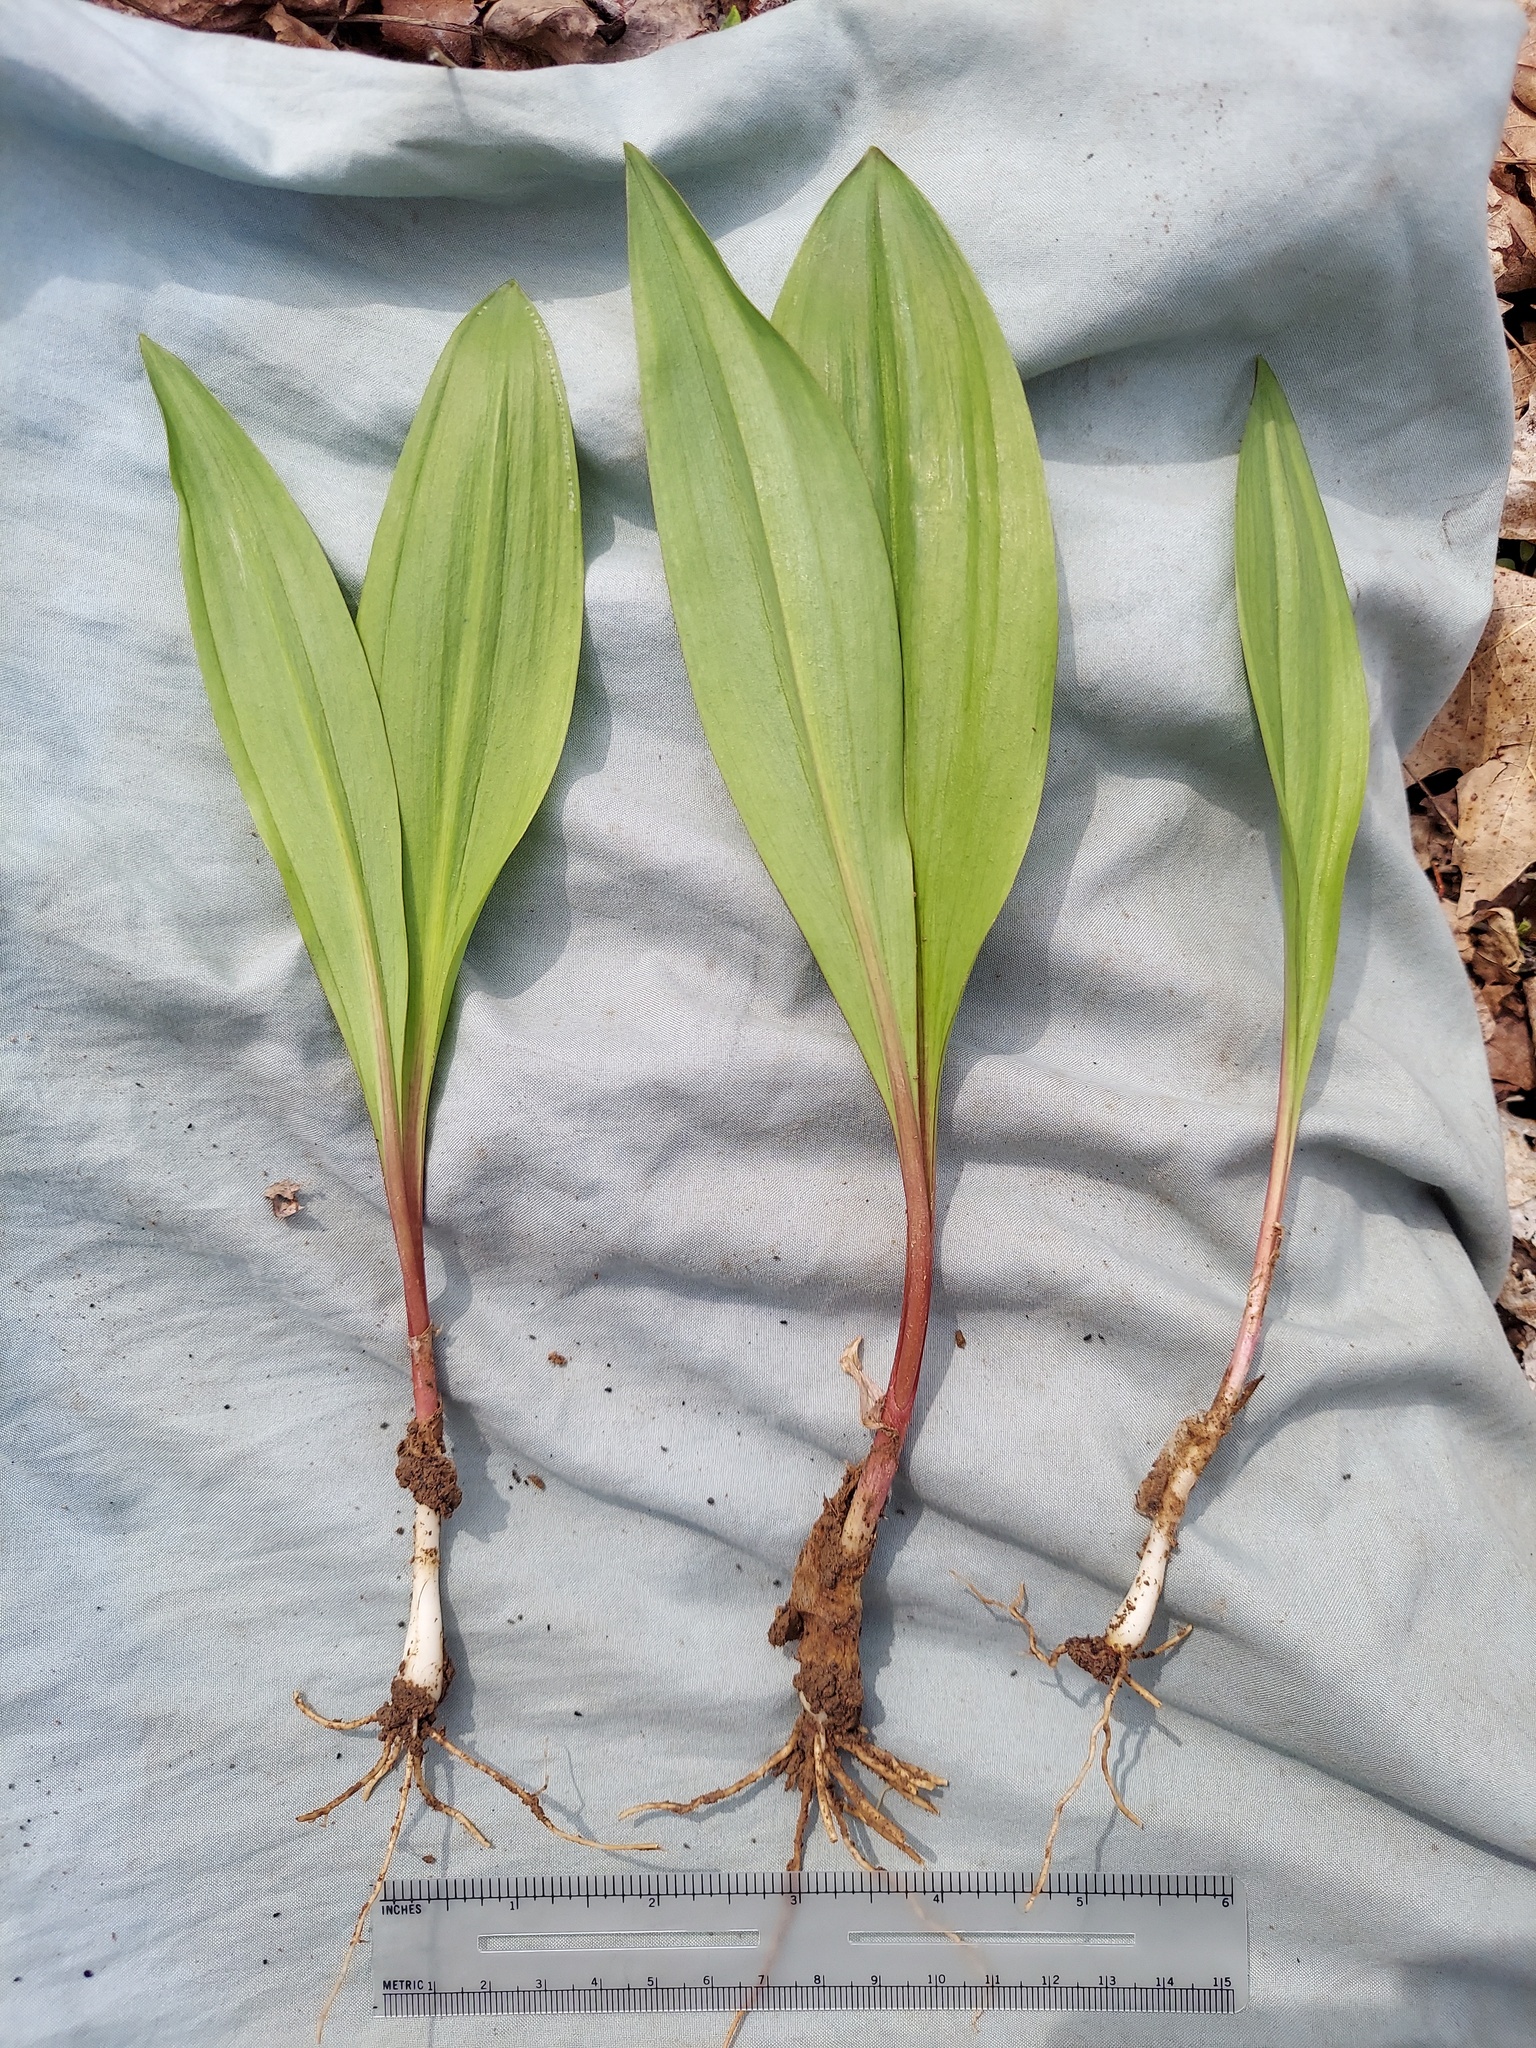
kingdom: Plantae
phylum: Tracheophyta
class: Liliopsida
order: Asparagales
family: Amaryllidaceae
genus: Allium
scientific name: Allium tricoccum
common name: Ramp
